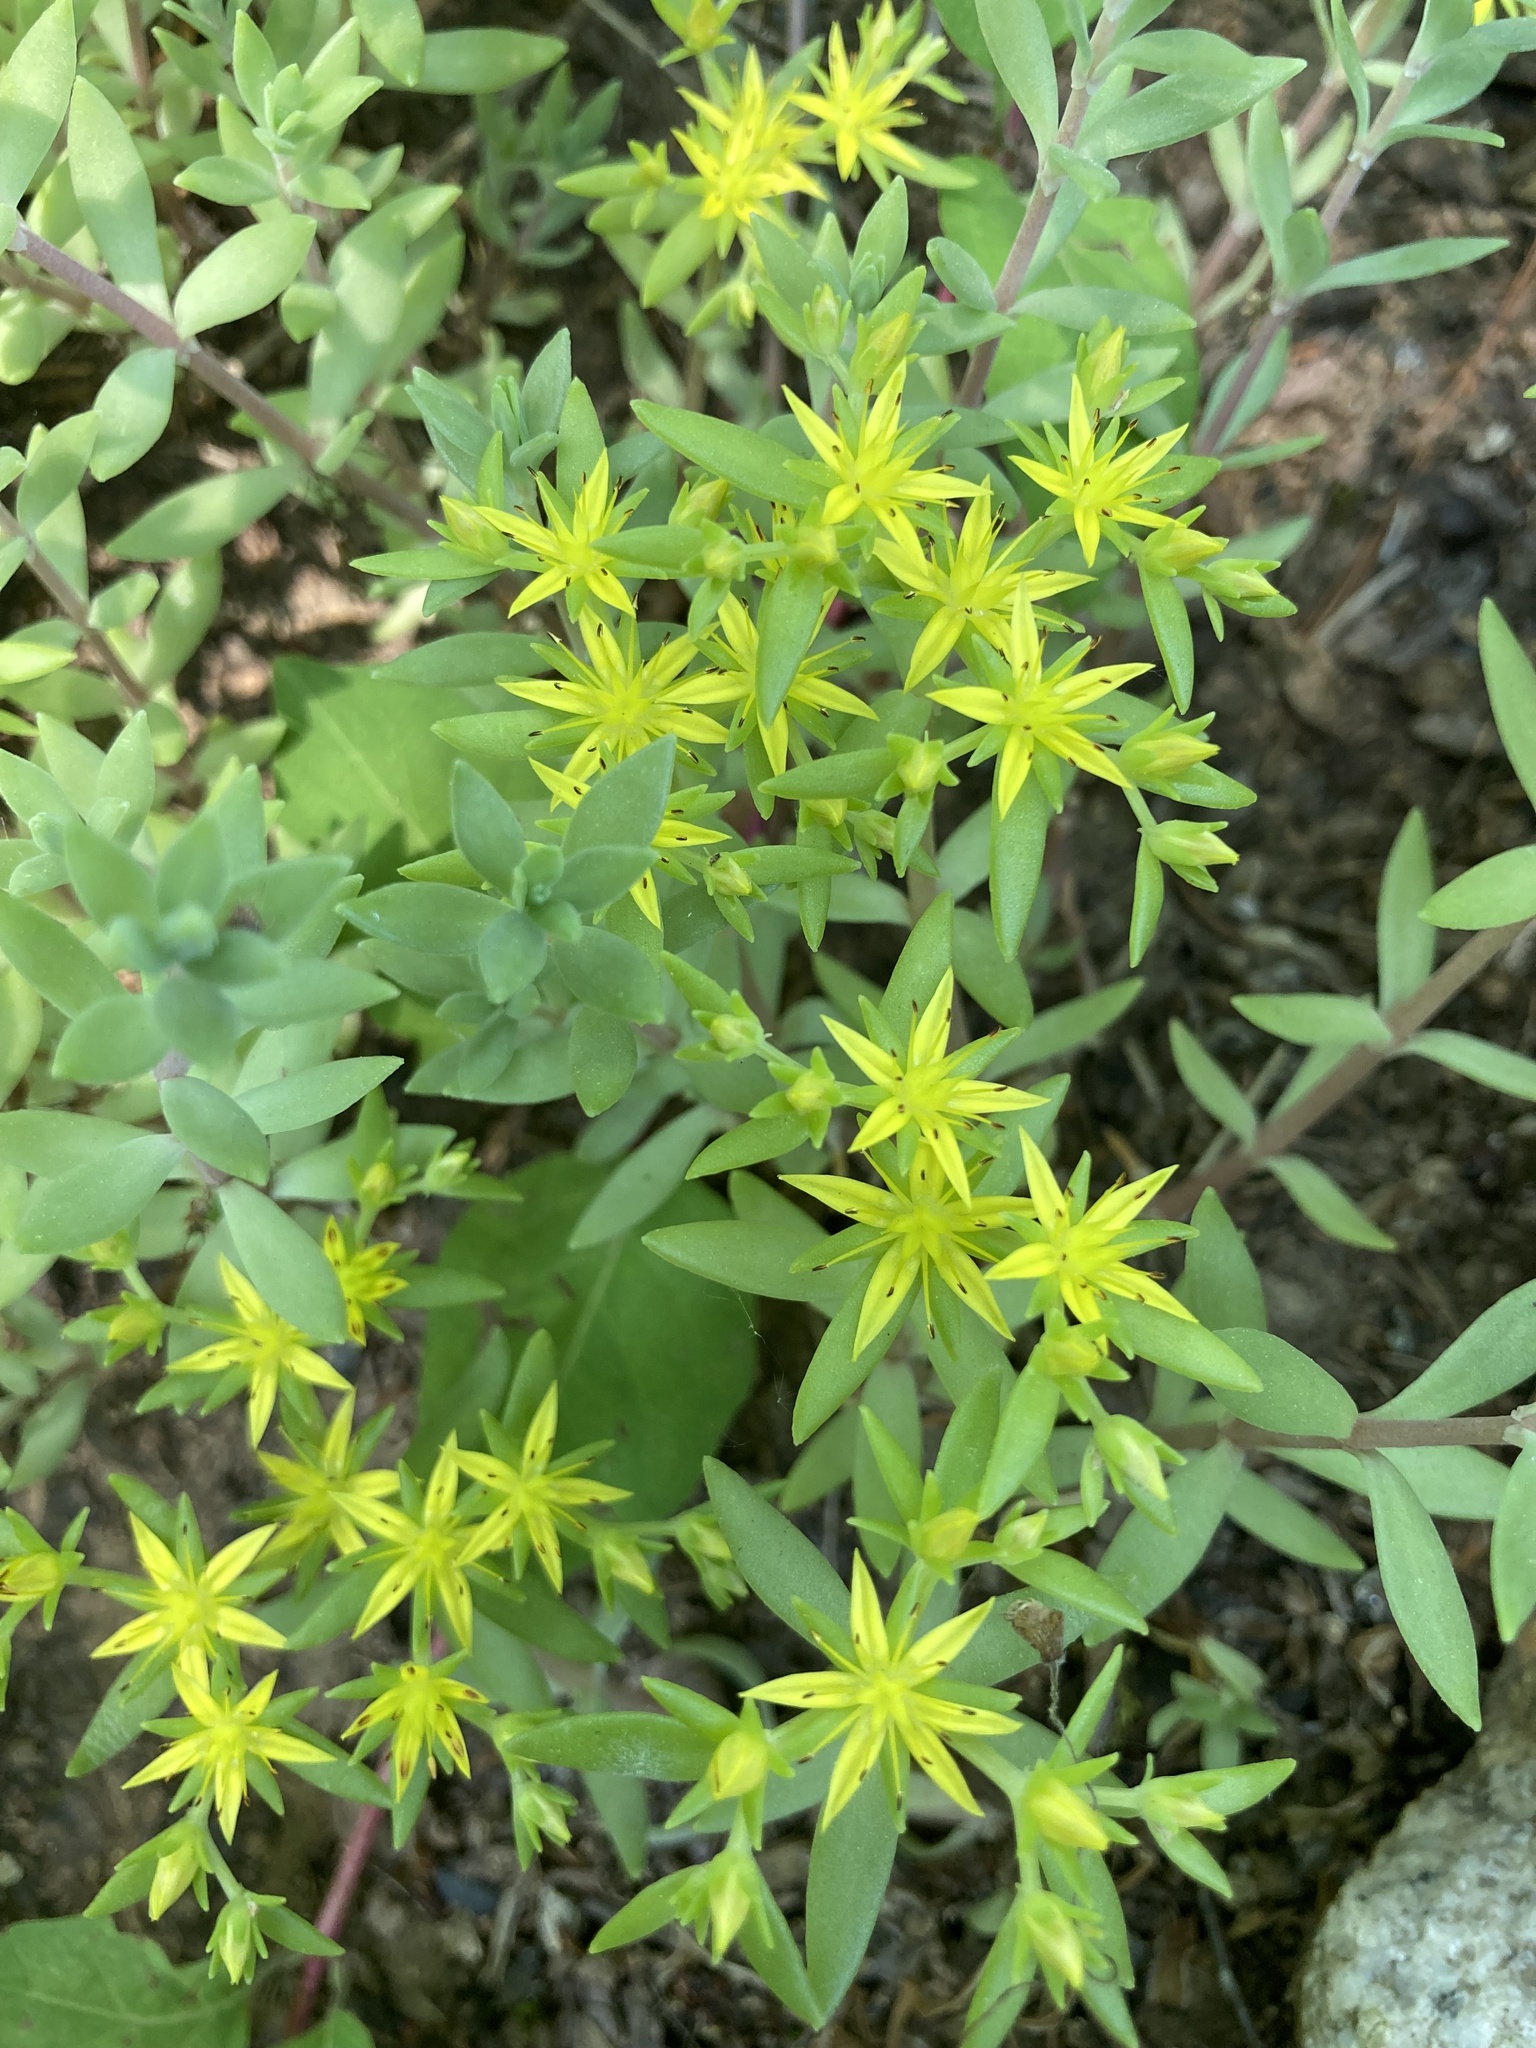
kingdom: Plantae
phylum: Tracheophyta
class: Magnoliopsida
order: Saxifragales
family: Crassulaceae
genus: Sedum
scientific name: Sedum sarmentosum
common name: Stringy stonecrop
